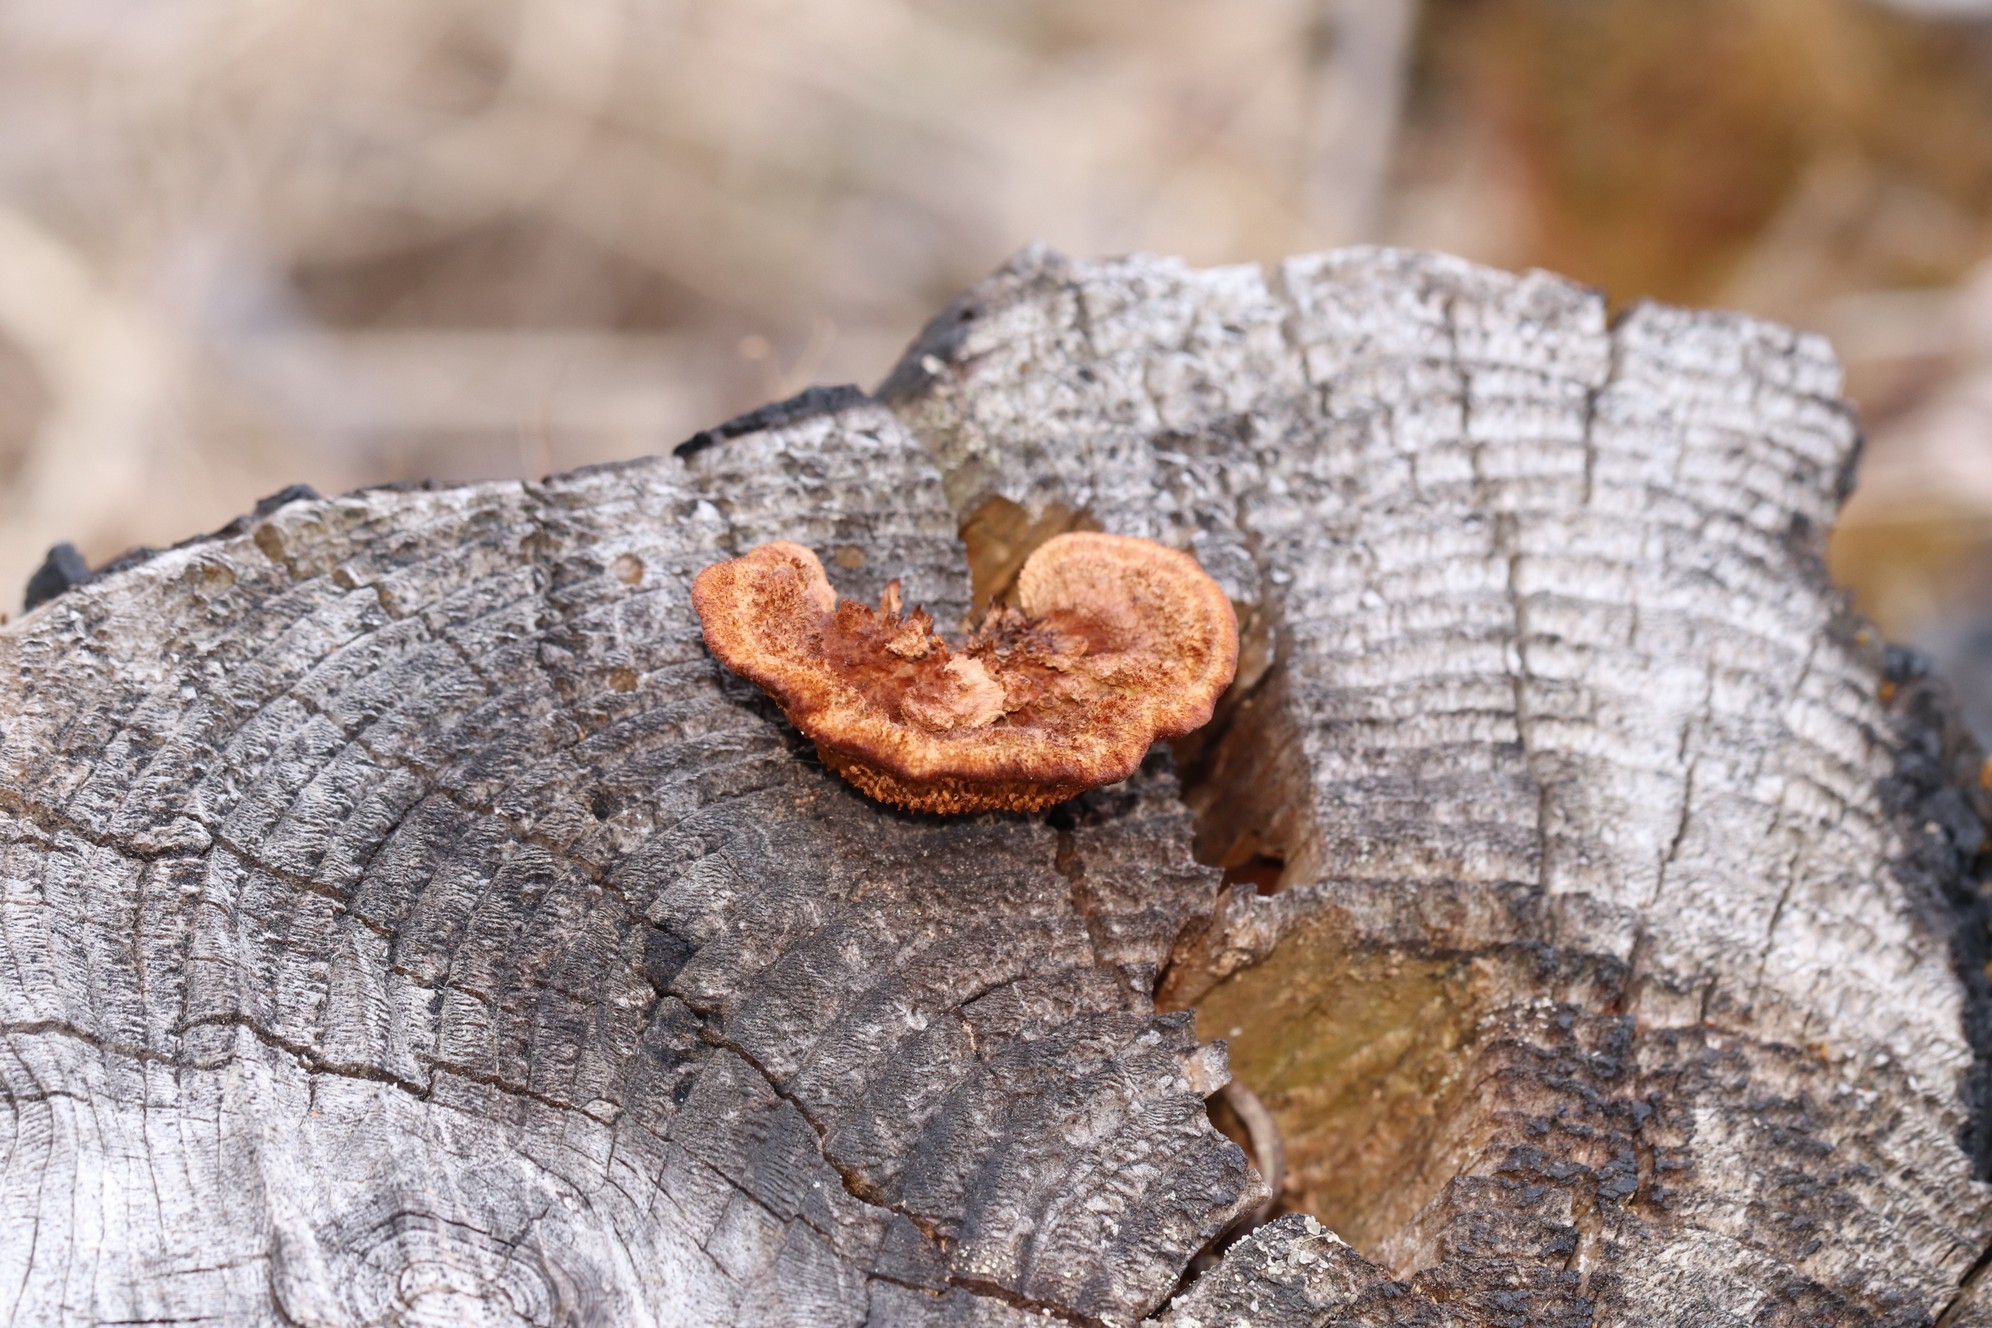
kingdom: Fungi
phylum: Basidiomycota
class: Agaricomycetes
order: Gloeophyllales
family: Gloeophyllaceae
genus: Gloeophyllum
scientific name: Gloeophyllum sepiarium
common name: Conifer mazegill
